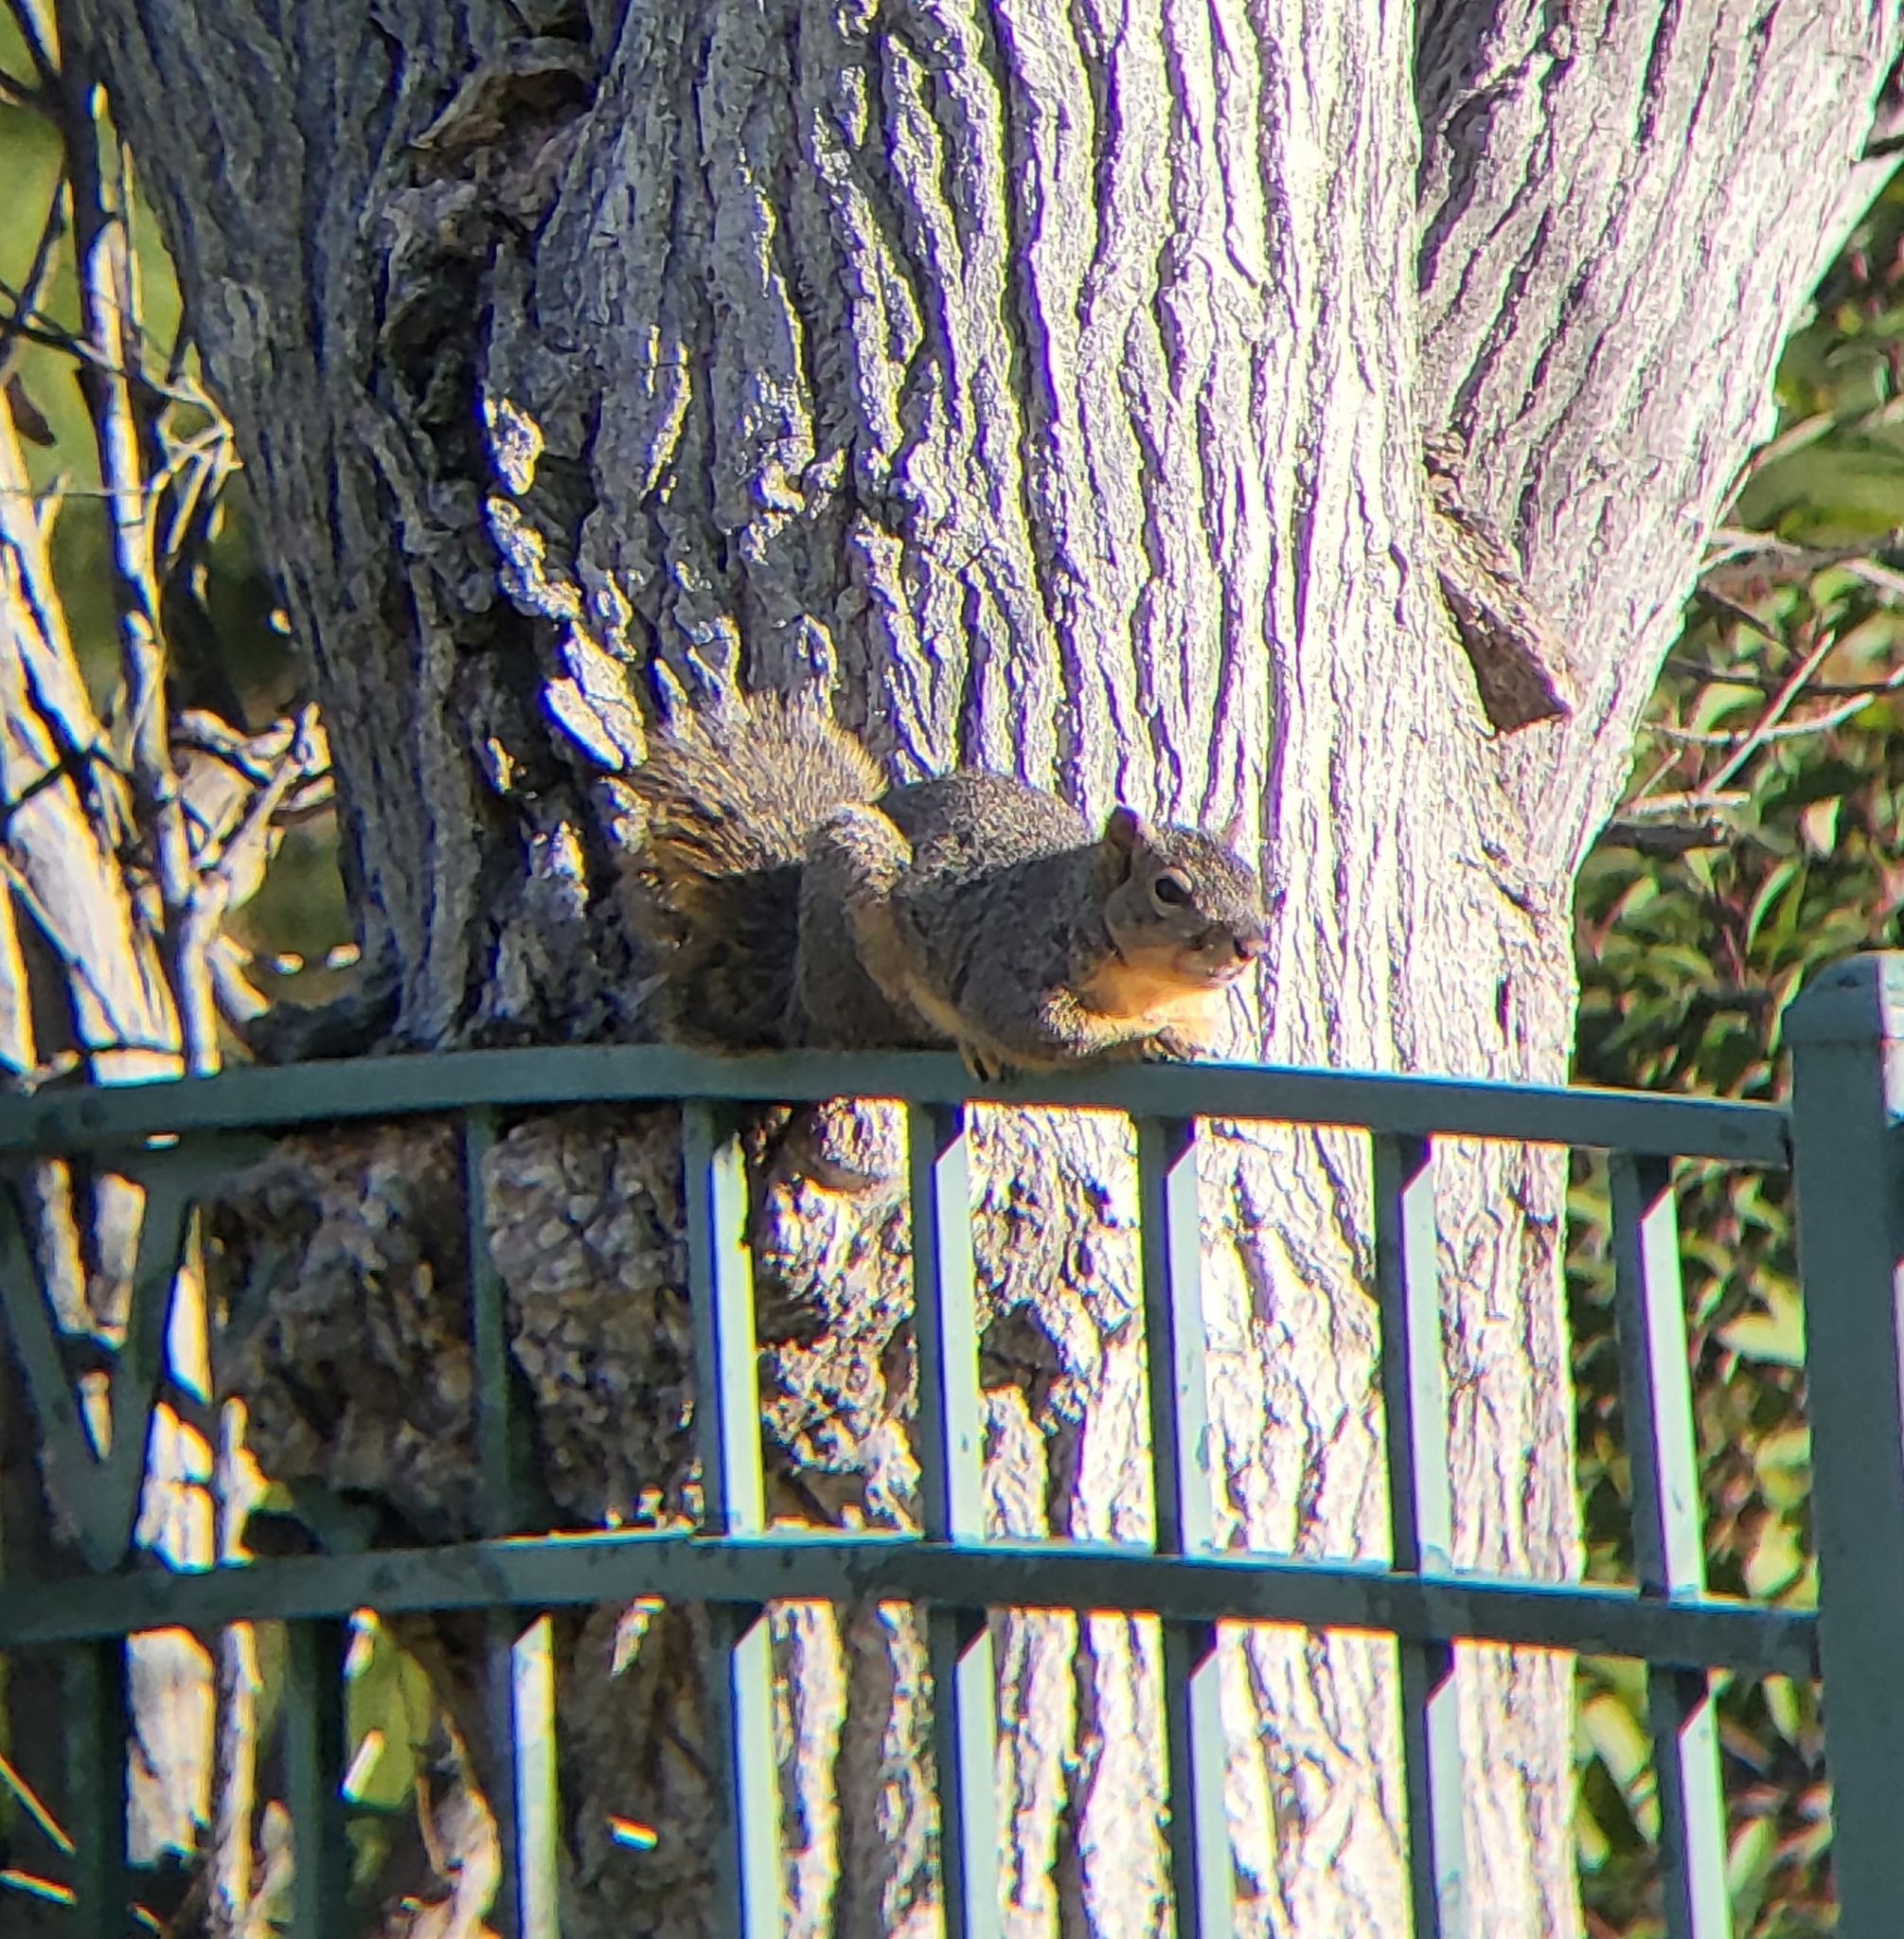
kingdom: Animalia
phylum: Chordata
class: Mammalia
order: Rodentia
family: Sciuridae
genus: Sciurus
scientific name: Sciurus niger
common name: Fox squirrel
